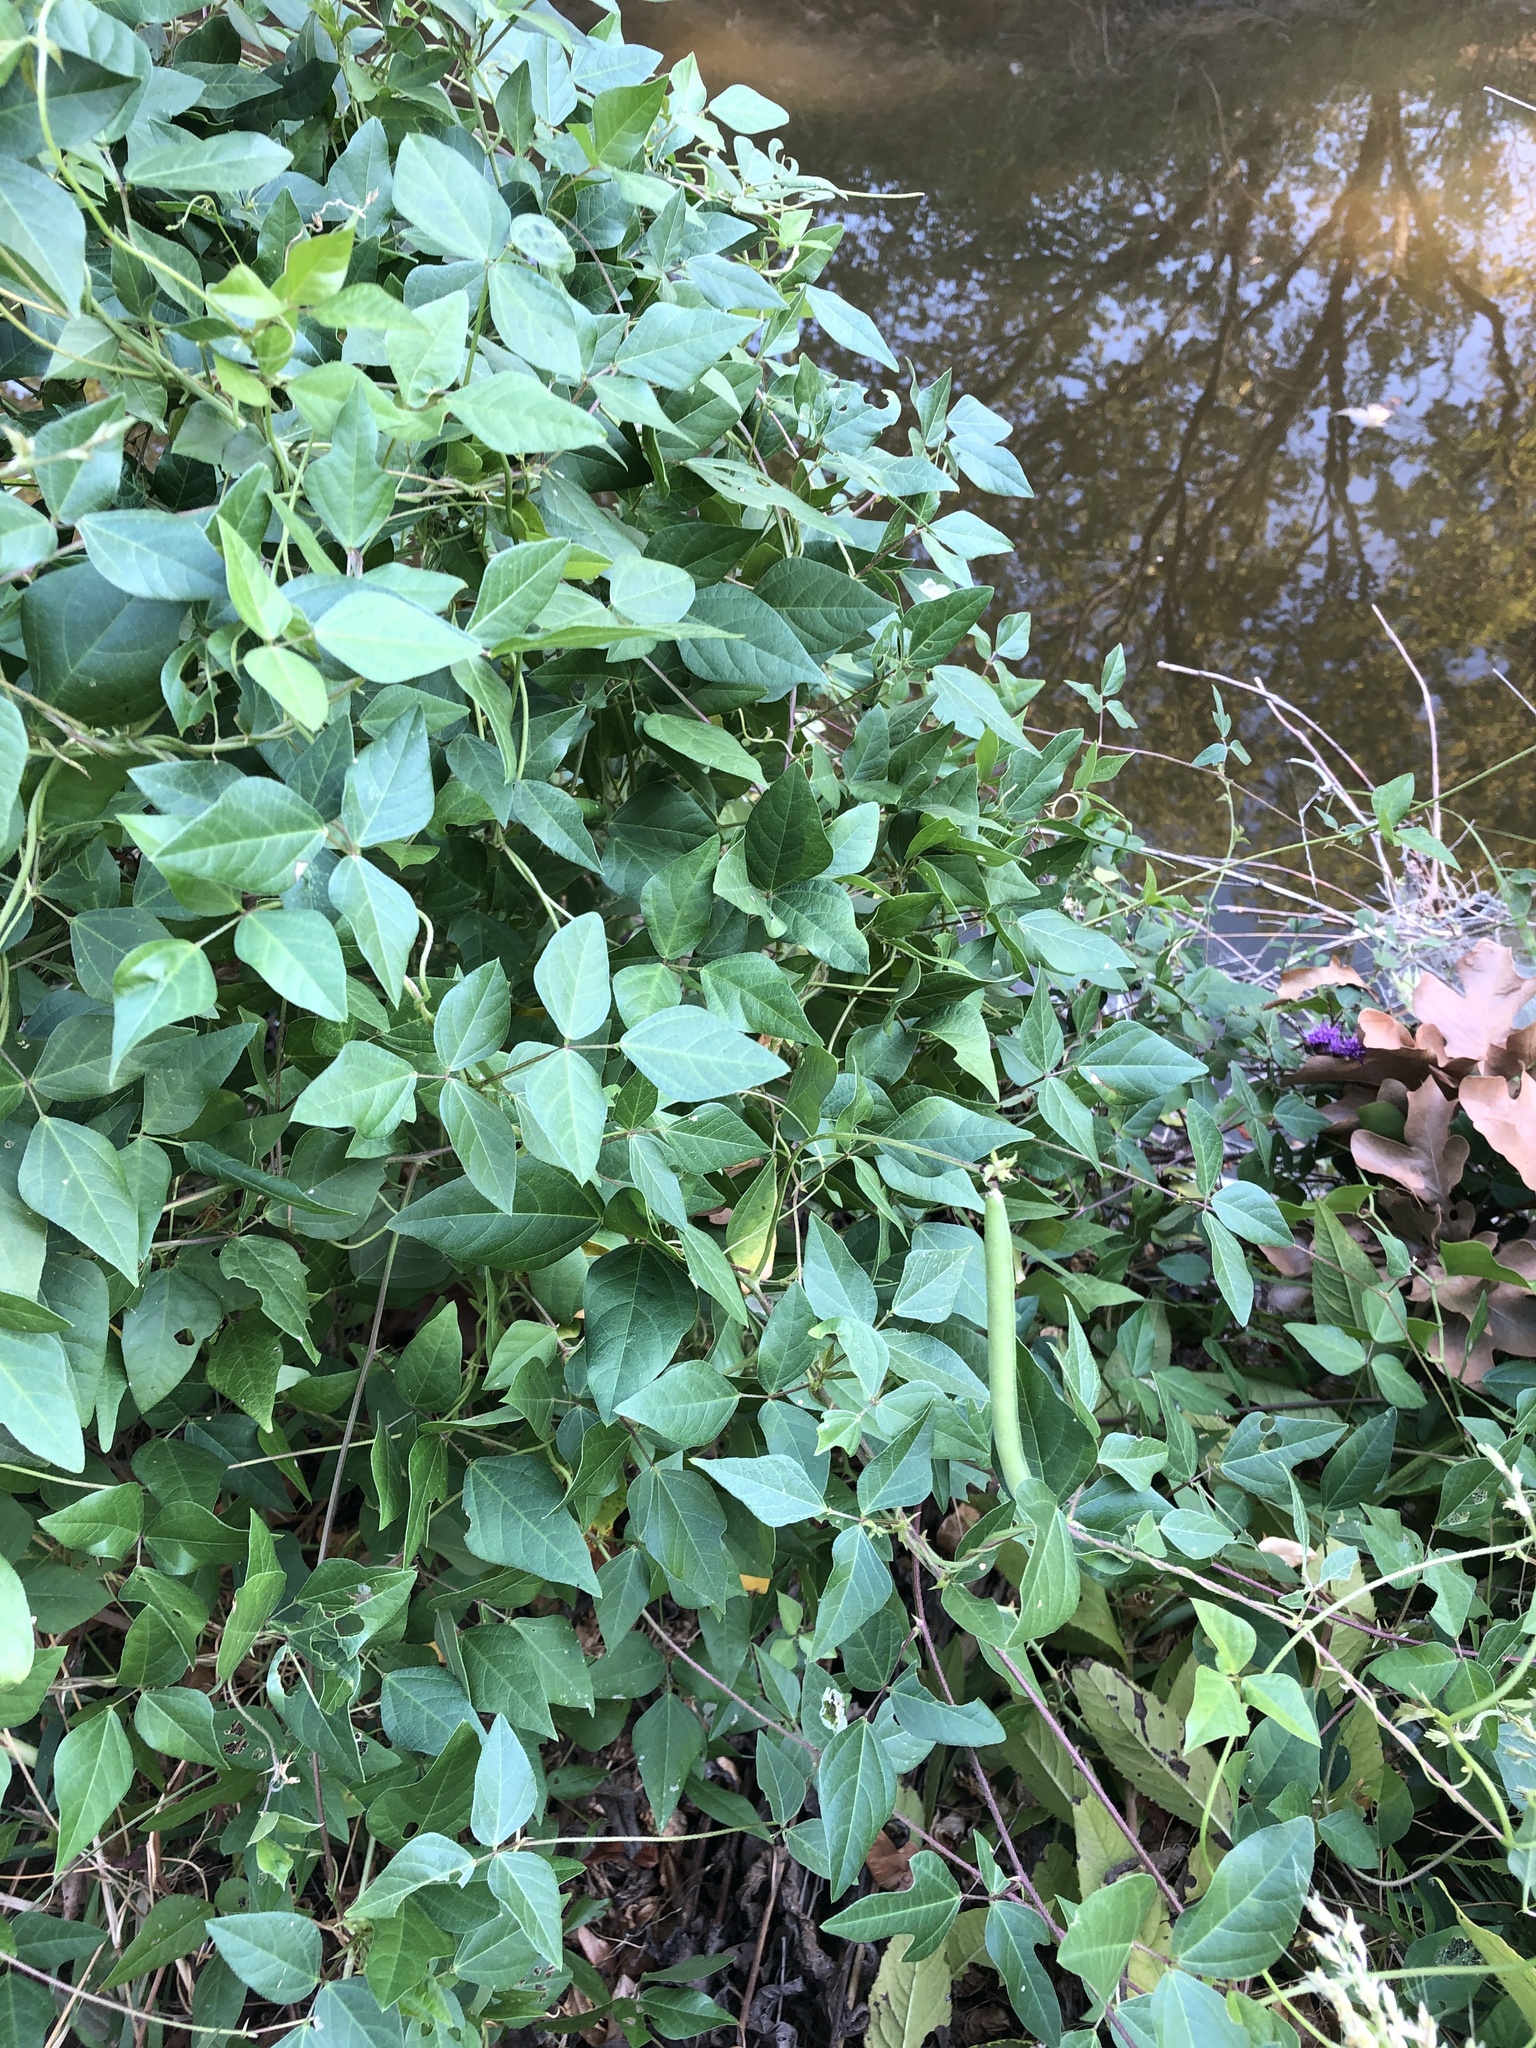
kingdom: Plantae
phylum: Tracheophyta
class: Magnoliopsida
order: Fabales
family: Fabaceae
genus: Strophostyles
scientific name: Strophostyles helvola
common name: Trailing wild bean
